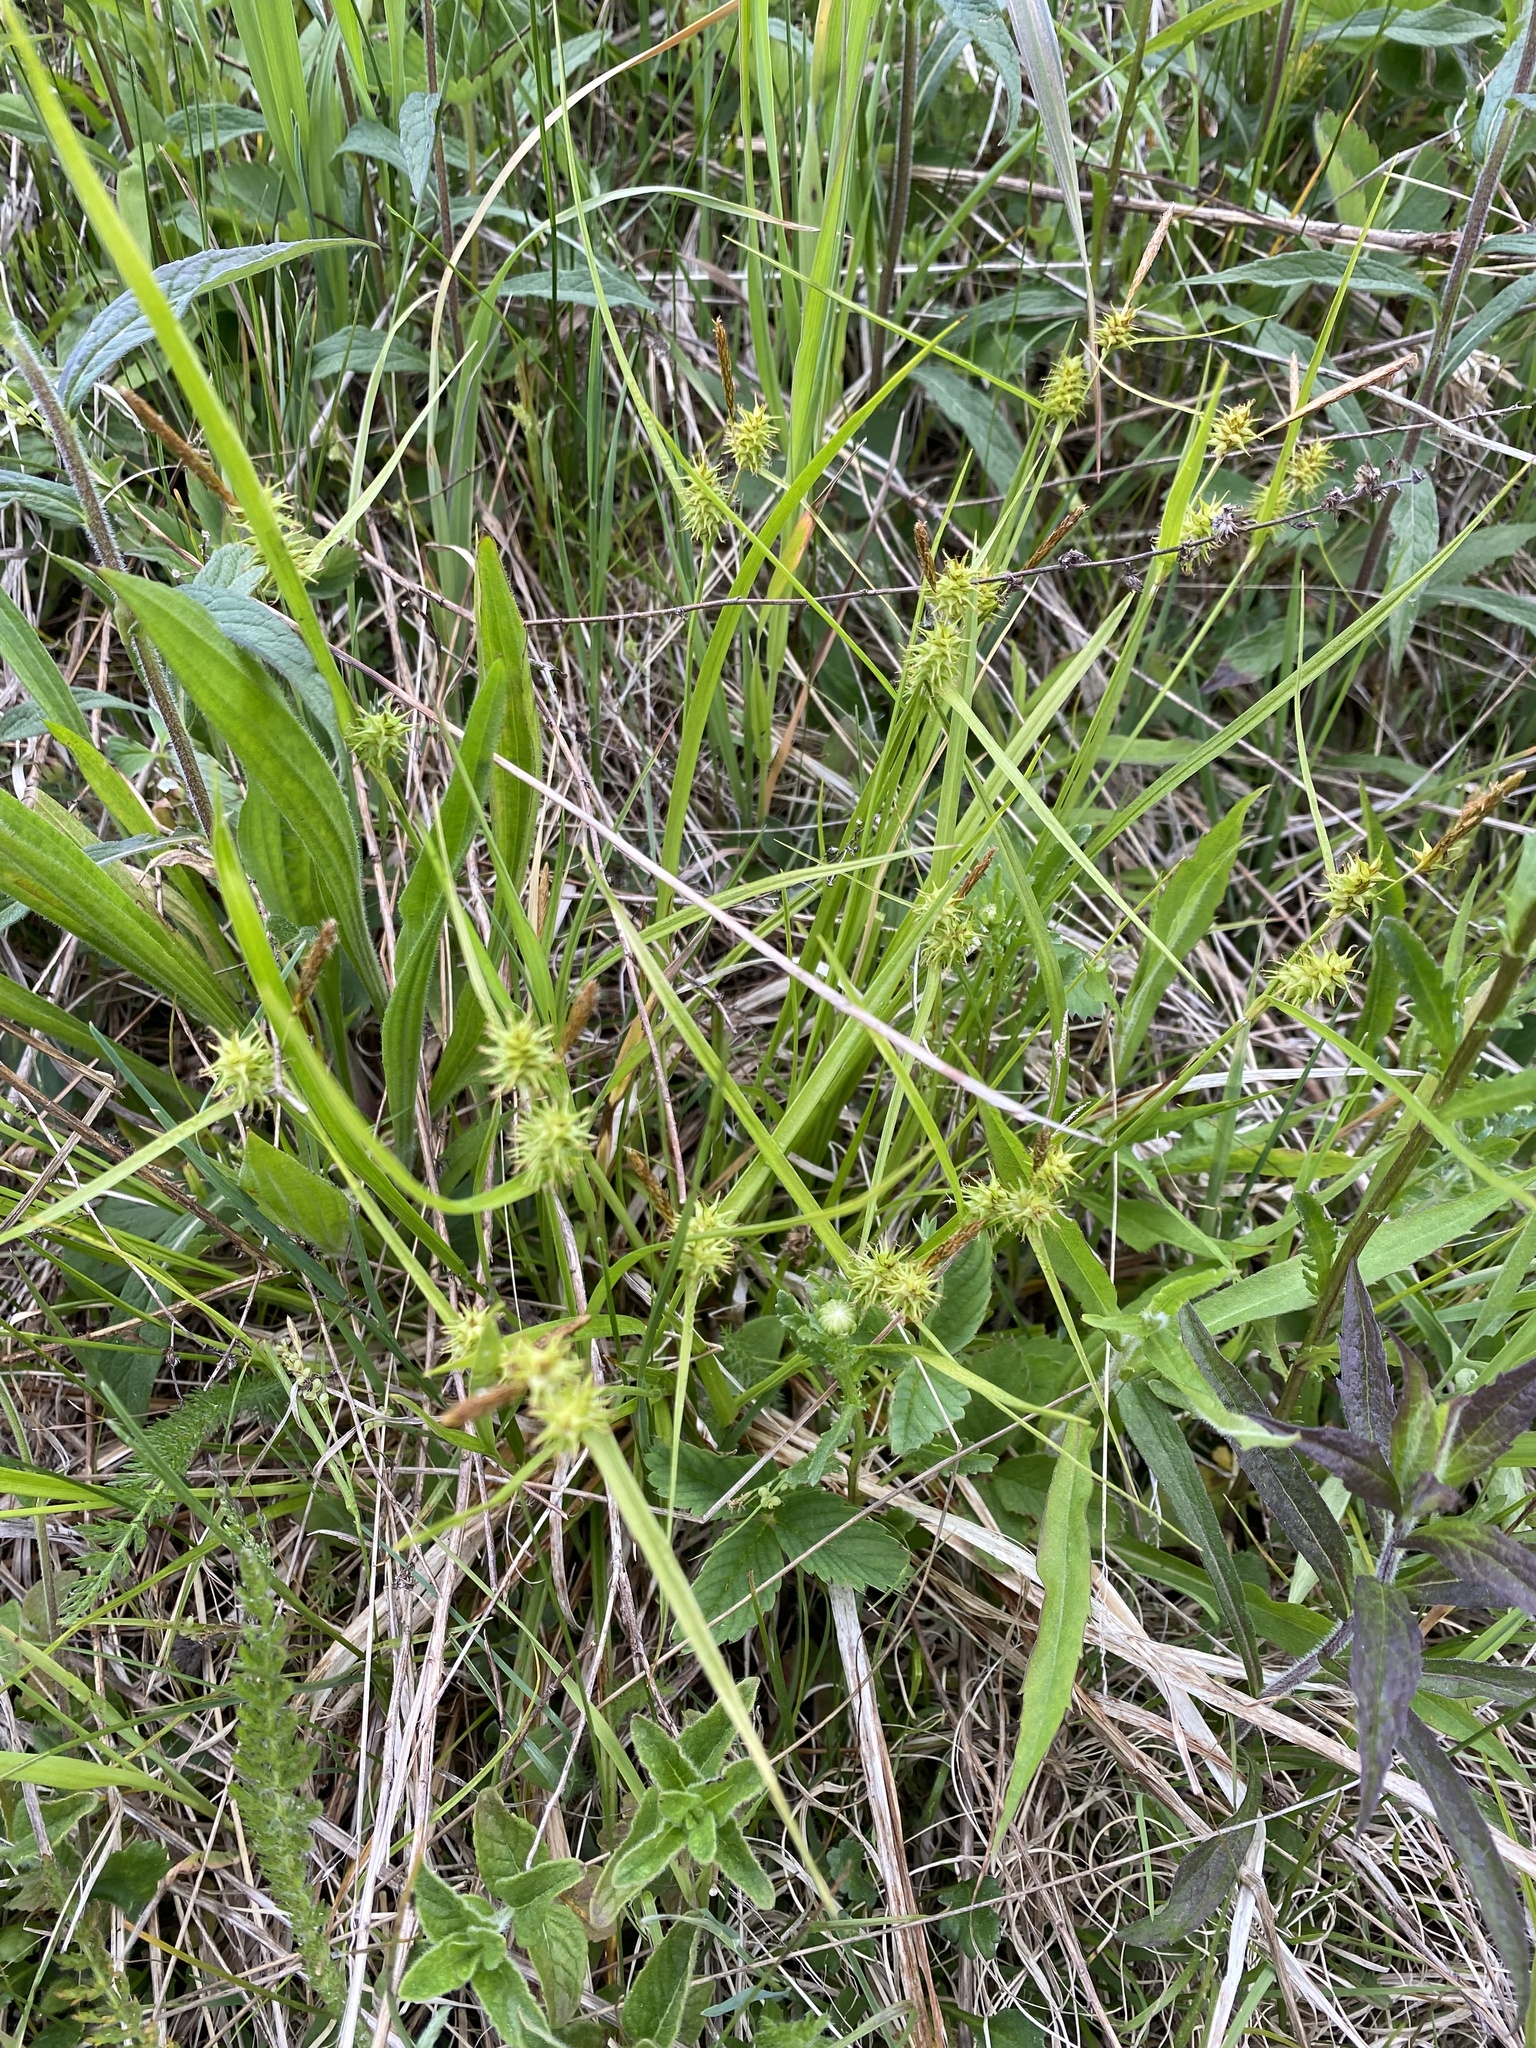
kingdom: Plantae
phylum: Tracheophyta
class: Liliopsida
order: Poales
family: Cyperaceae
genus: Carex
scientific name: Carex flava
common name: Large yellow-sedge
